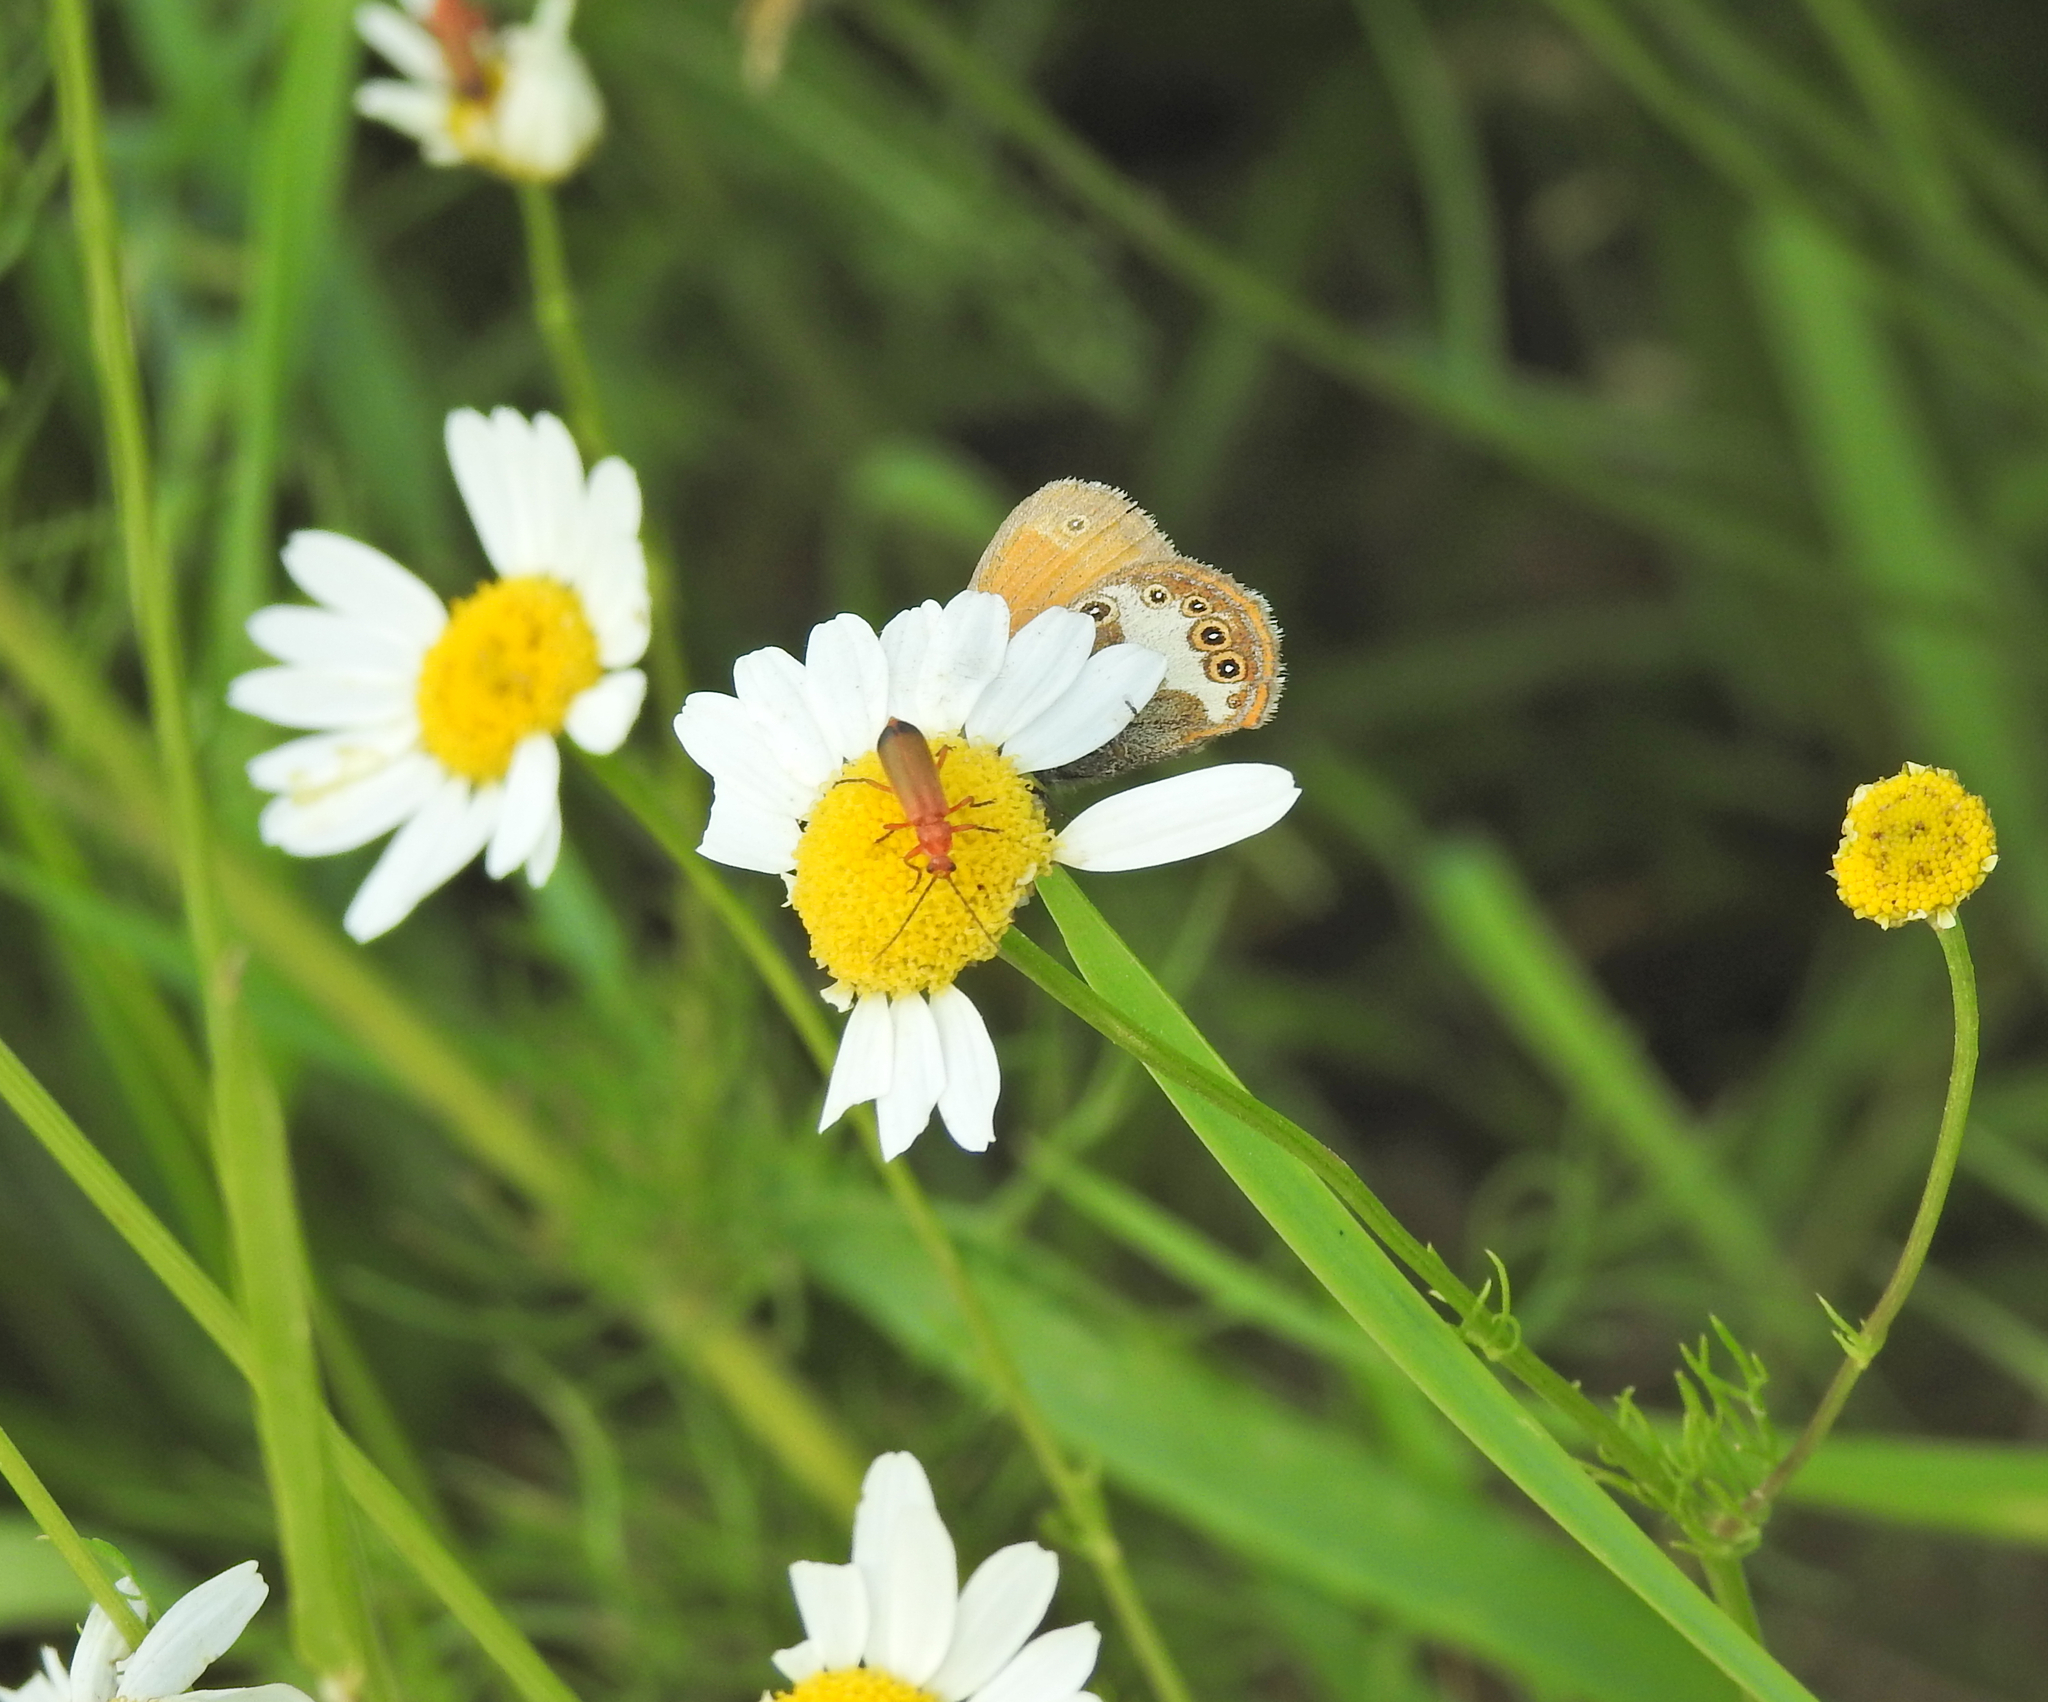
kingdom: Animalia
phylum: Arthropoda
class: Insecta
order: Coleoptera
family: Cantharidae
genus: Rhagonycha
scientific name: Rhagonycha fulva
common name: Common red soldier beetle
